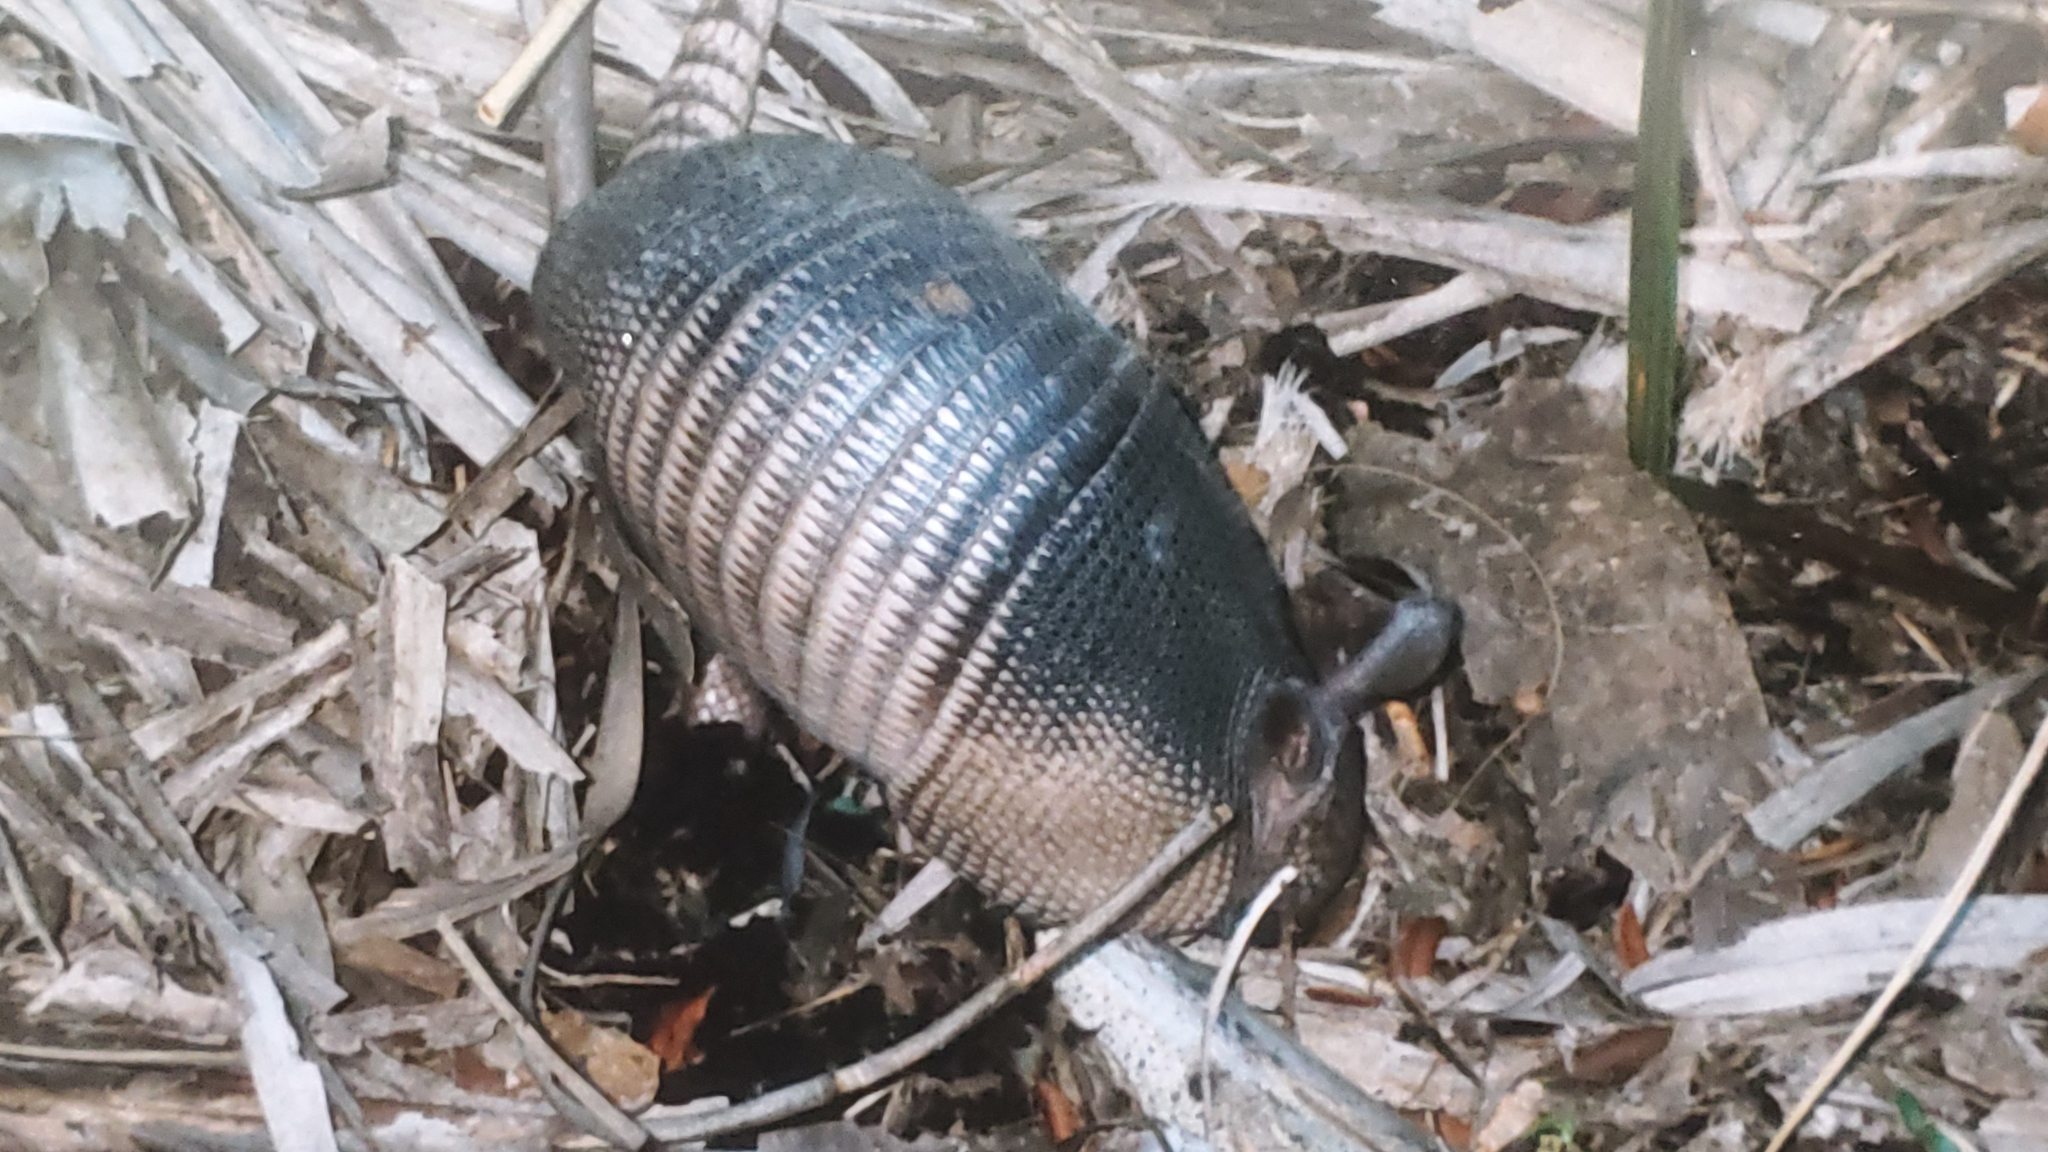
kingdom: Animalia
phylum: Chordata
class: Mammalia
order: Cingulata
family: Dasypodidae
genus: Dasypus
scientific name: Dasypus novemcinctus
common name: Nine-banded armadillo
